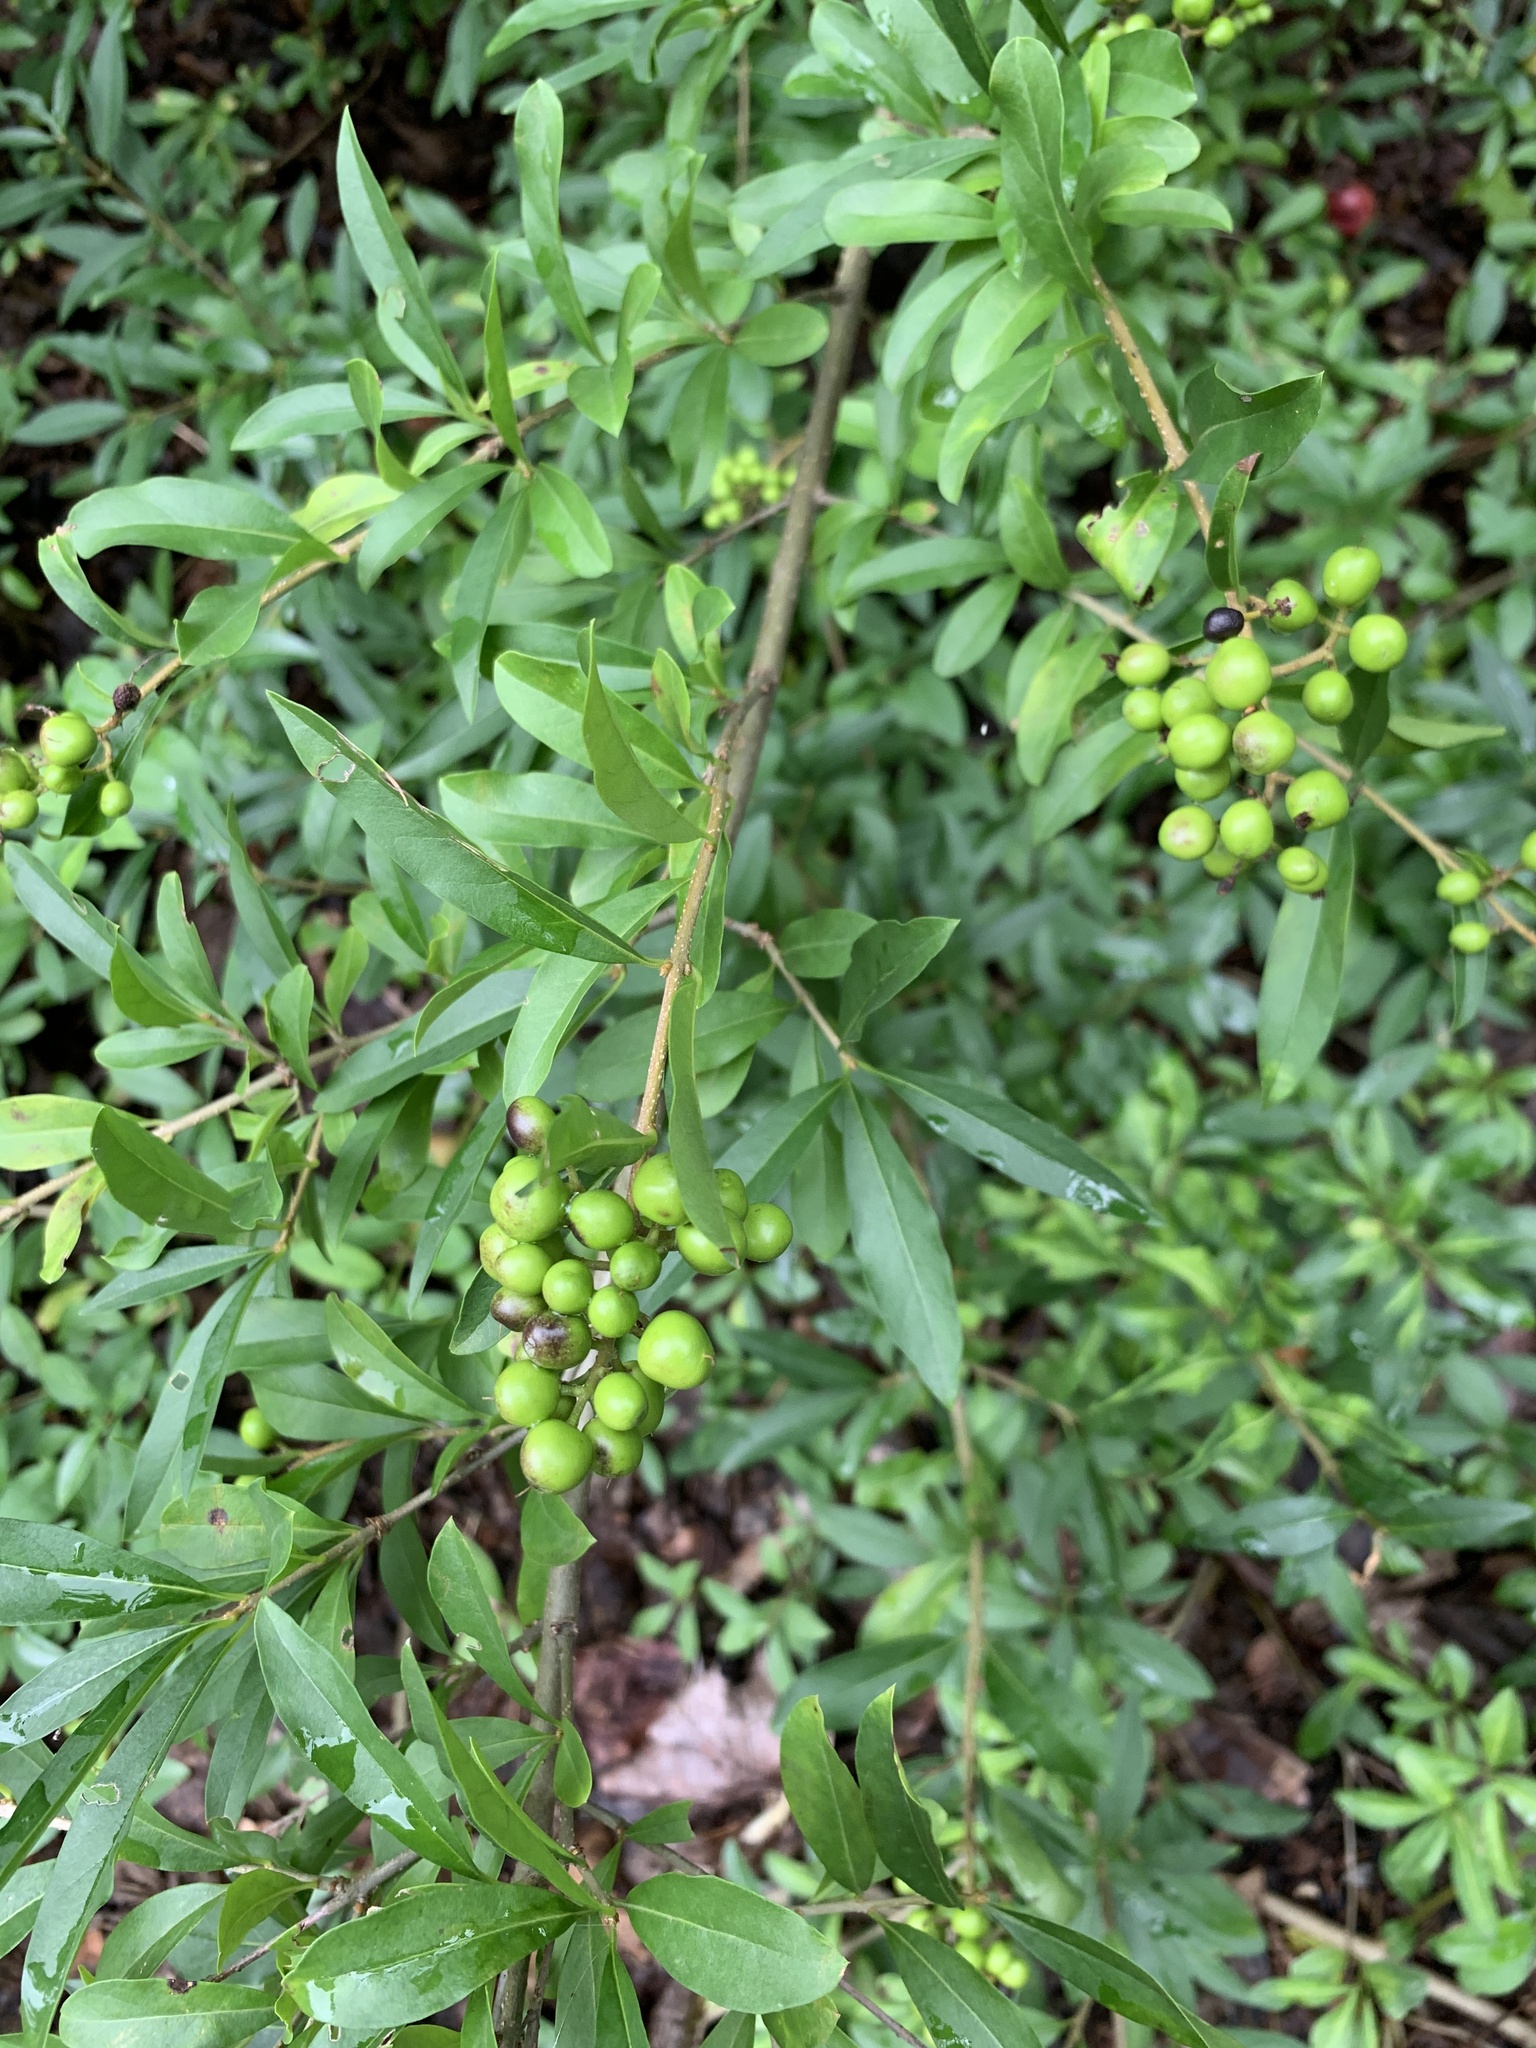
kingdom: Plantae
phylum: Tracheophyta
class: Magnoliopsida
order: Lamiales
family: Oleaceae
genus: Ligustrum
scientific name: Ligustrum vulgare
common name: Wild privet
